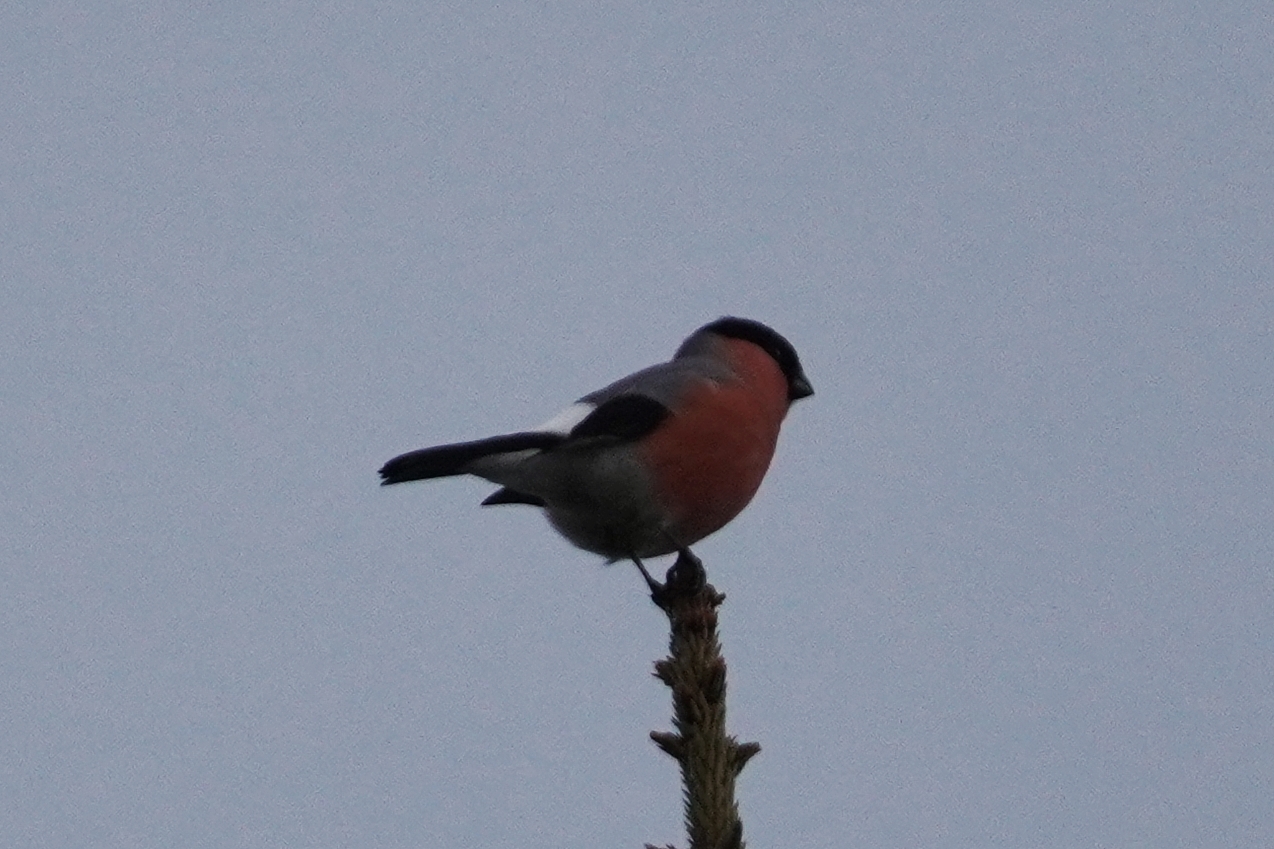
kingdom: Animalia
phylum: Chordata
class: Aves
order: Passeriformes
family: Fringillidae
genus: Pyrrhula
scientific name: Pyrrhula pyrrhula
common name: Eurasian bullfinch
